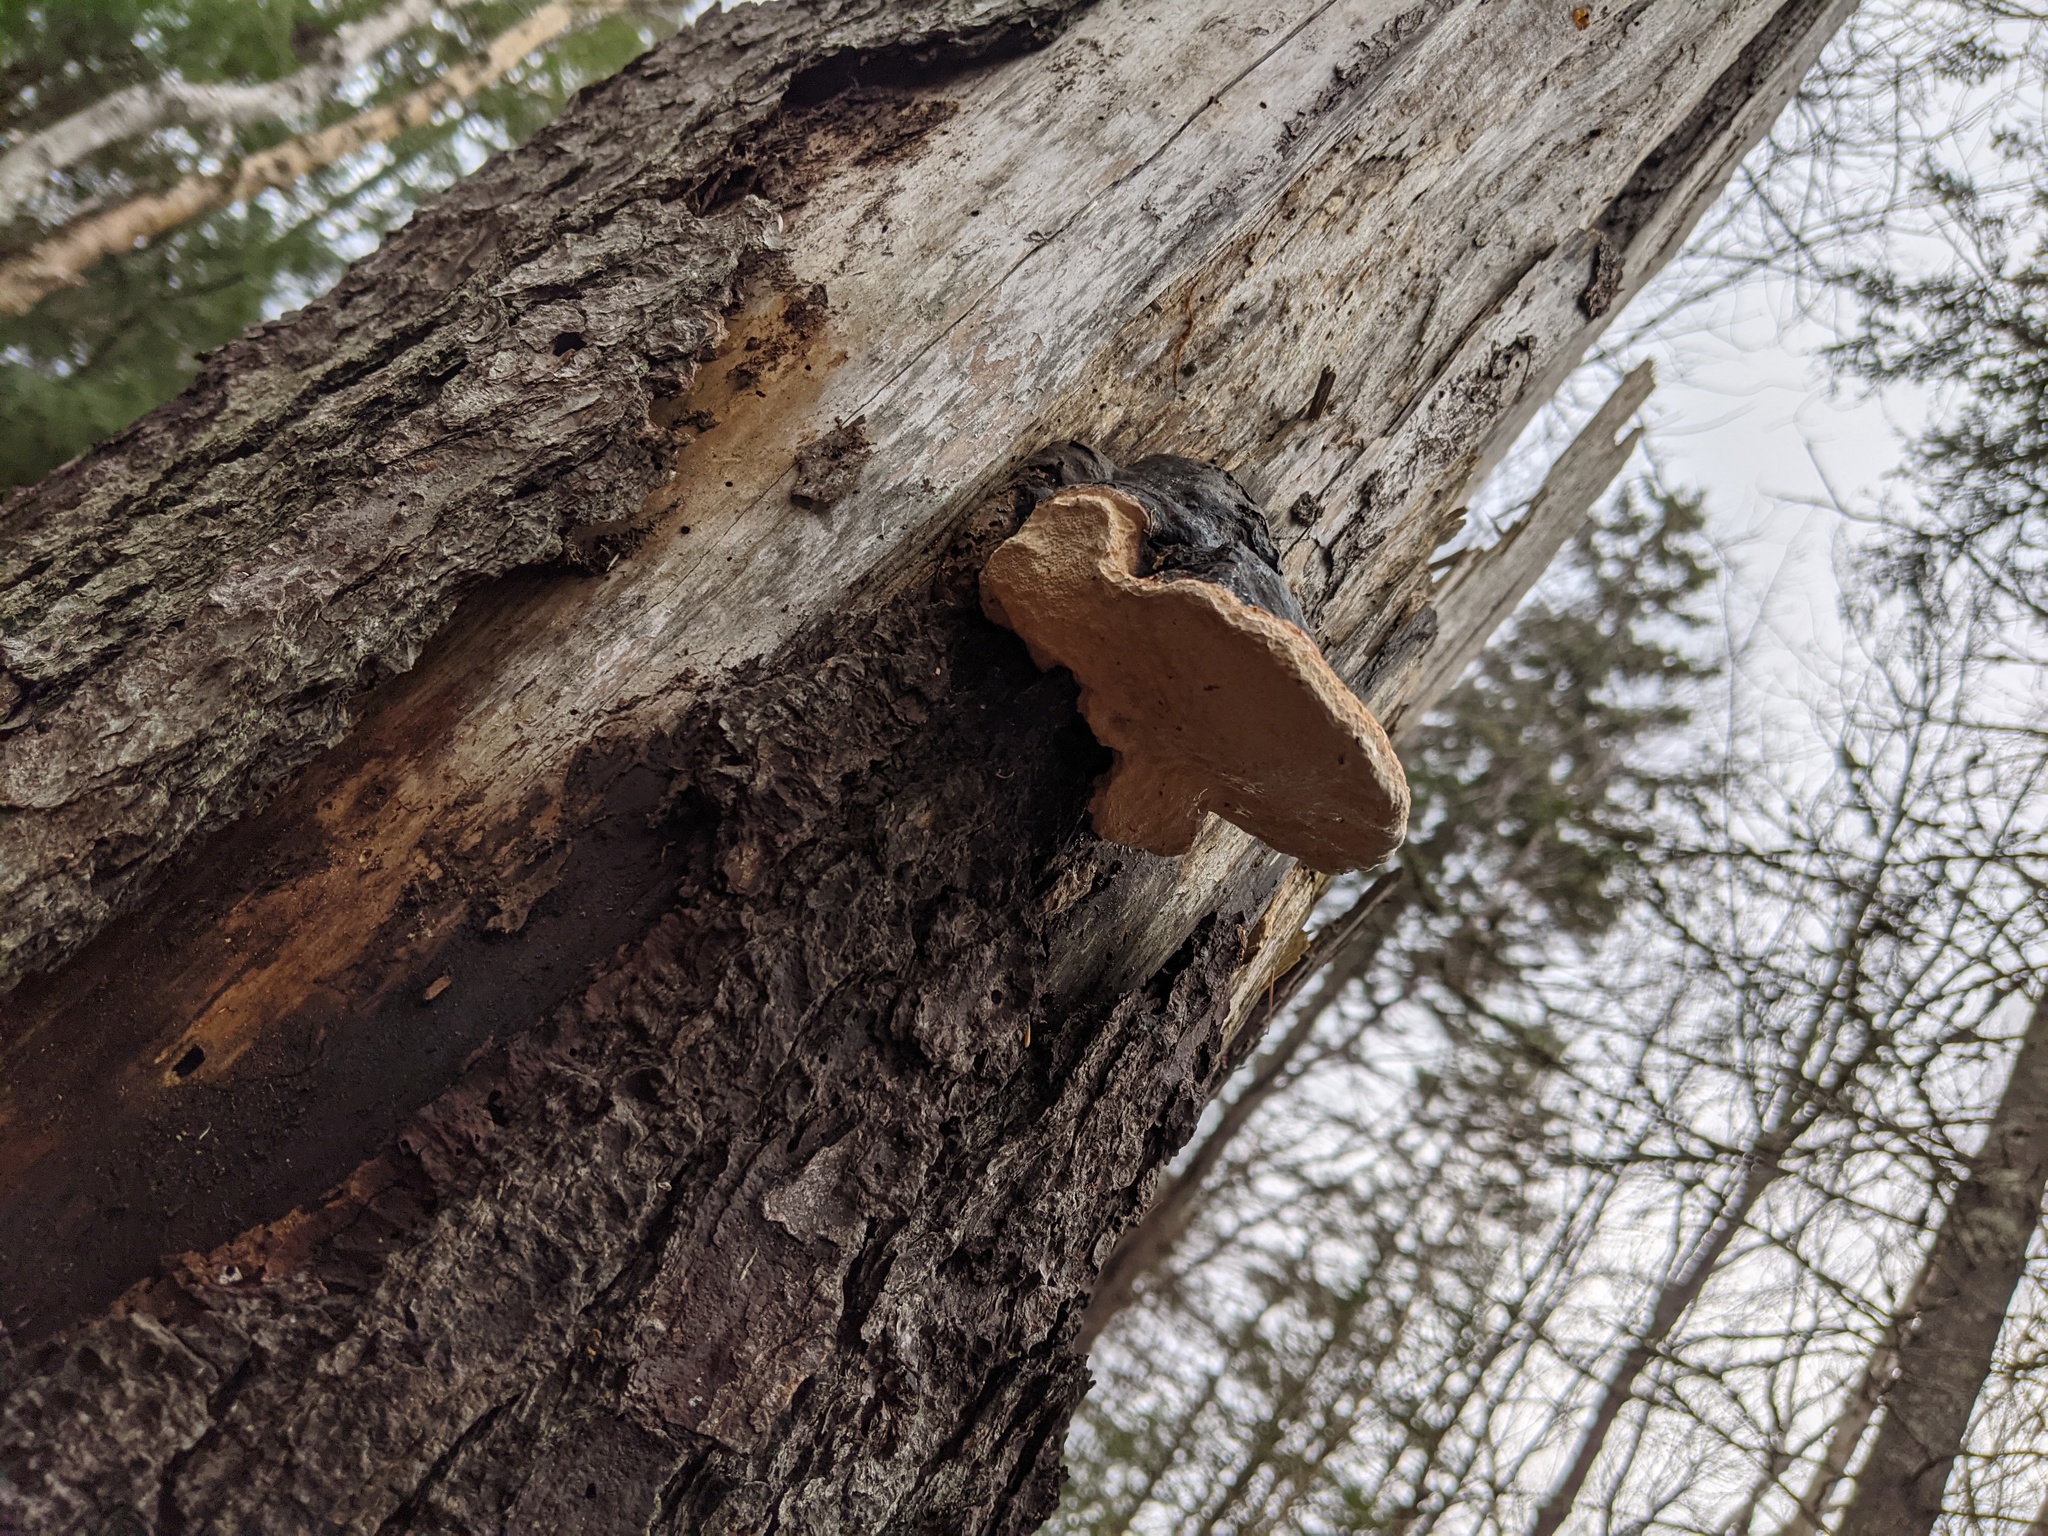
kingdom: Fungi
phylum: Basidiomycota
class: Agaricomycetes
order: Polyporales
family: Fomitopsidaceae
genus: Fomitopsis
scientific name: Fomitopsis mounceae
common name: Northern red belt
